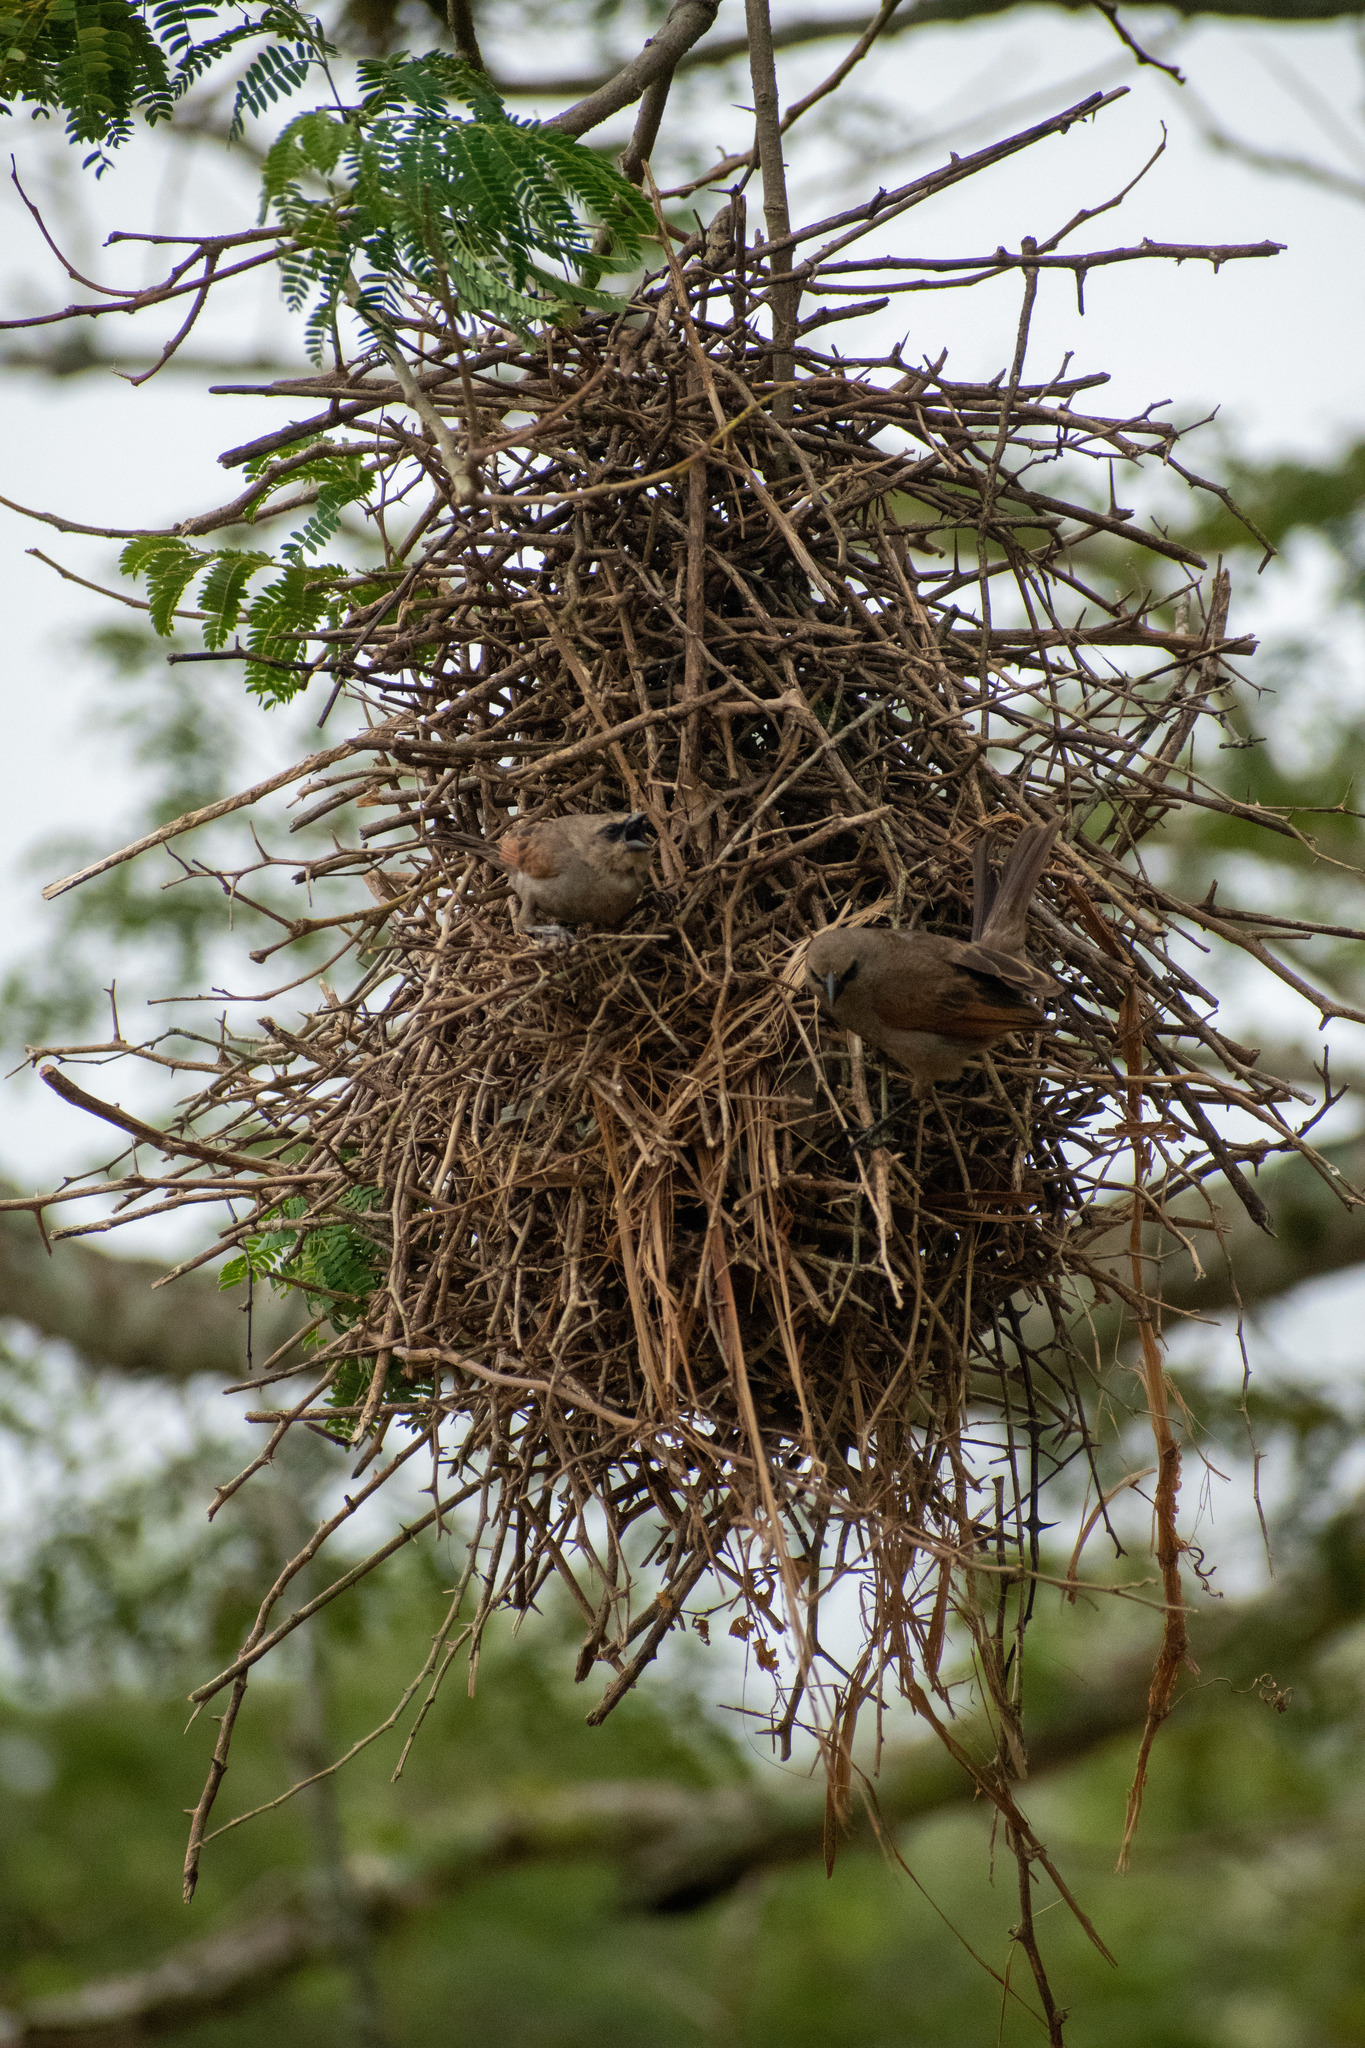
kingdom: Animalia
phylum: Chordata
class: Aves
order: Passeriformes
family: Icteridae
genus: Agelaioides
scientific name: Agelaioides badius
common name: Baywing
